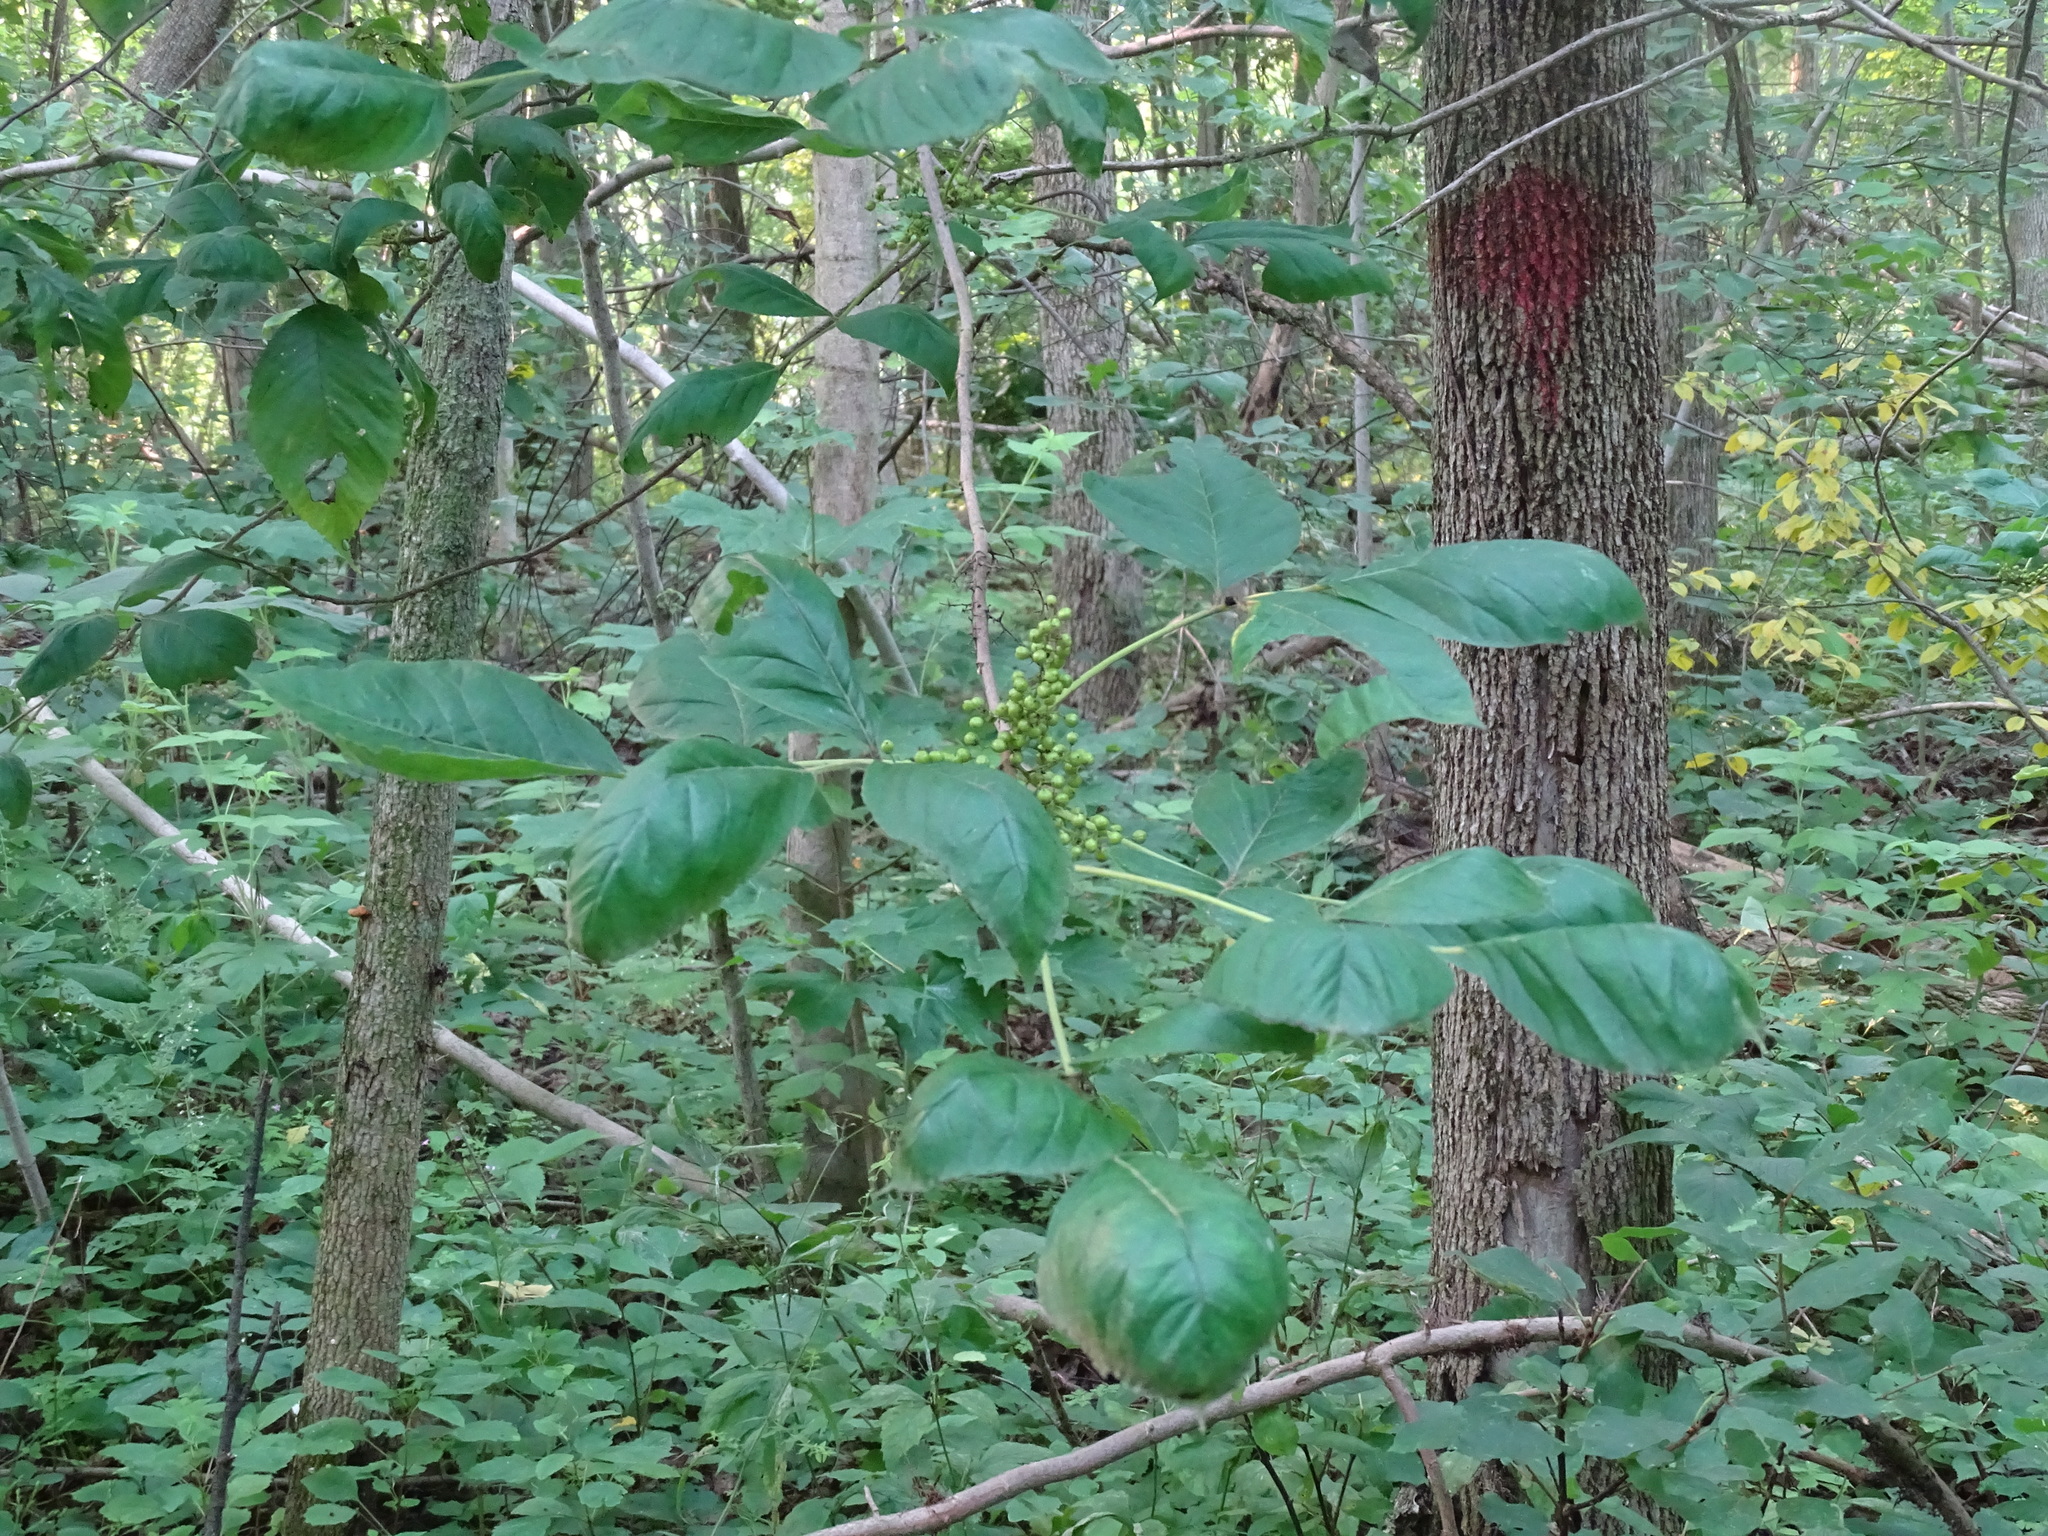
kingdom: Plantae
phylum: Tracheophyta
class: Magnoliopsida
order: Sapindales
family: Anacardiaceae
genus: Toxicodendron
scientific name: Toxicodendron radicans
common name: Poison ivy
